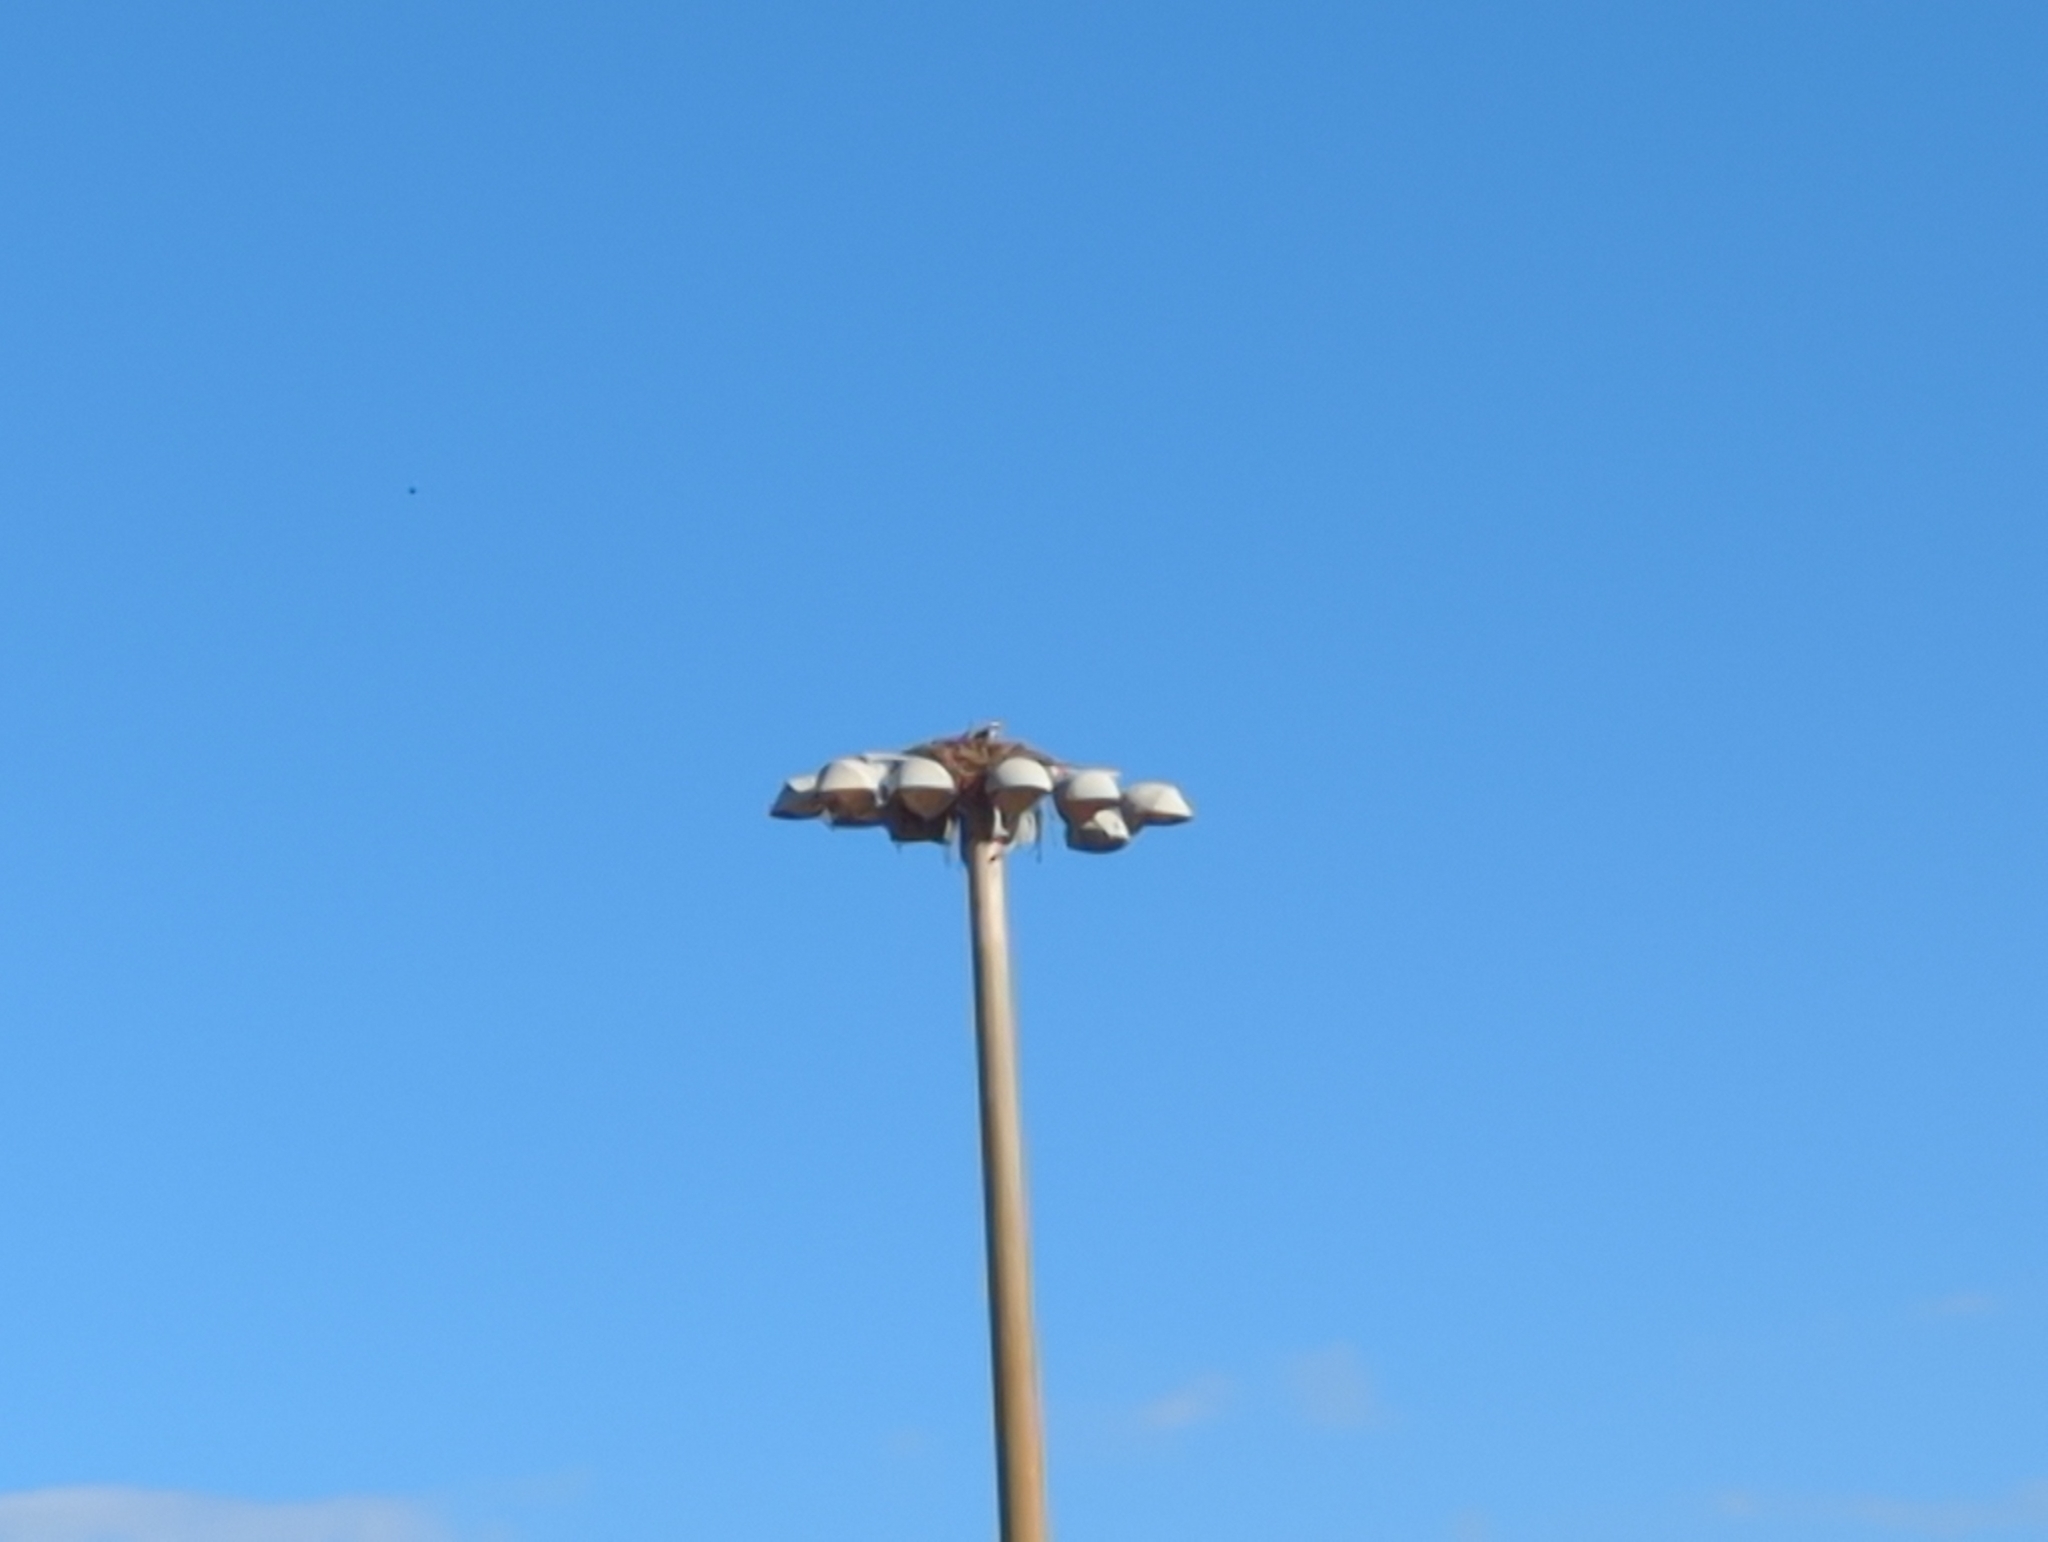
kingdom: Animalia
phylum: Chordata
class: Aves
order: Accipitriformes
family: Pandionidae
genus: Pandion
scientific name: Pandion haliaetus
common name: Osprey
